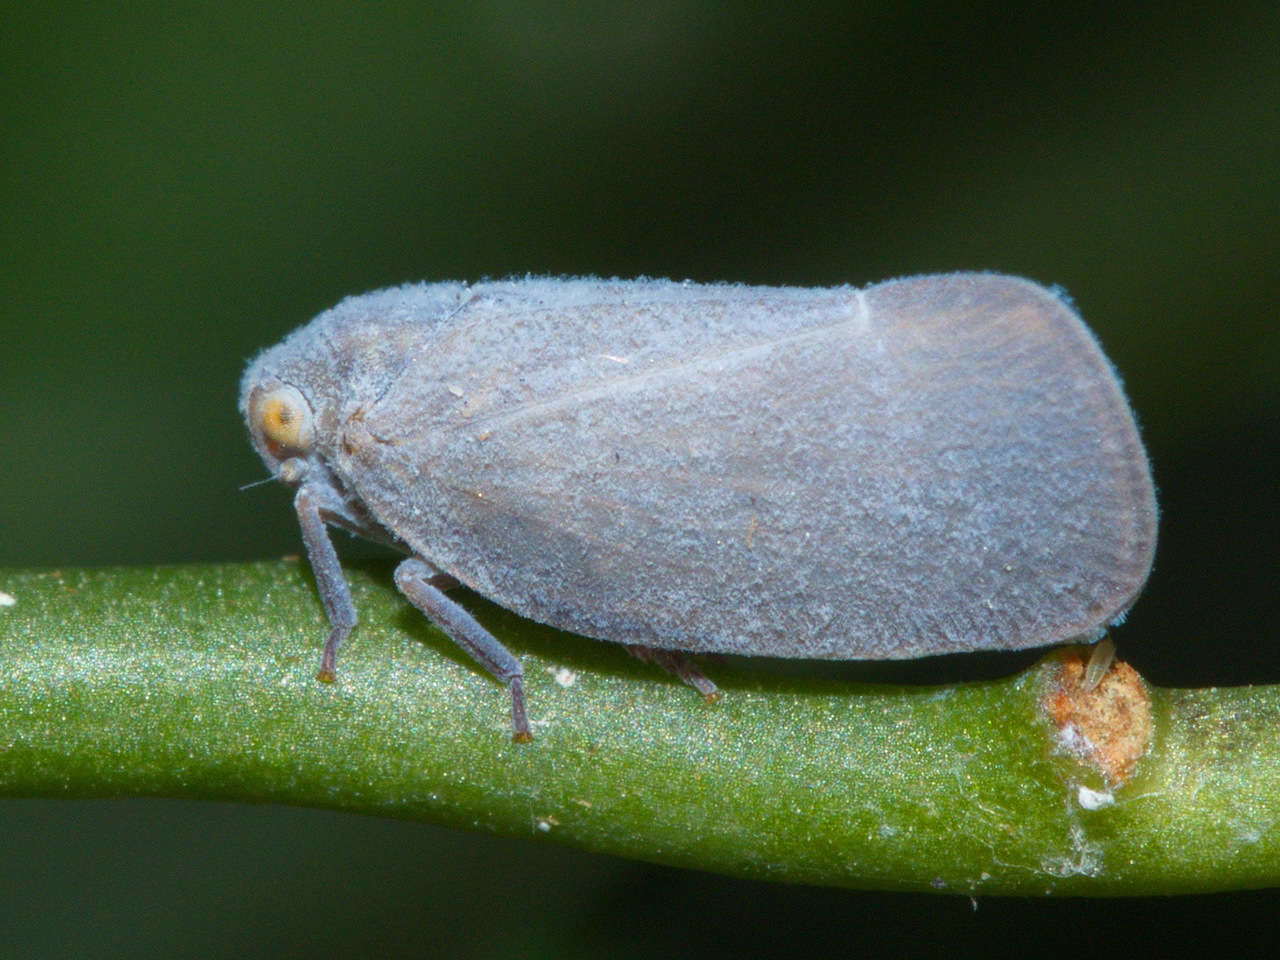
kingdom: Animalia
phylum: Arthropoda
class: Insecta
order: Hemiptera
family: Flatidae
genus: Anzora
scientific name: Anzora unicolor
